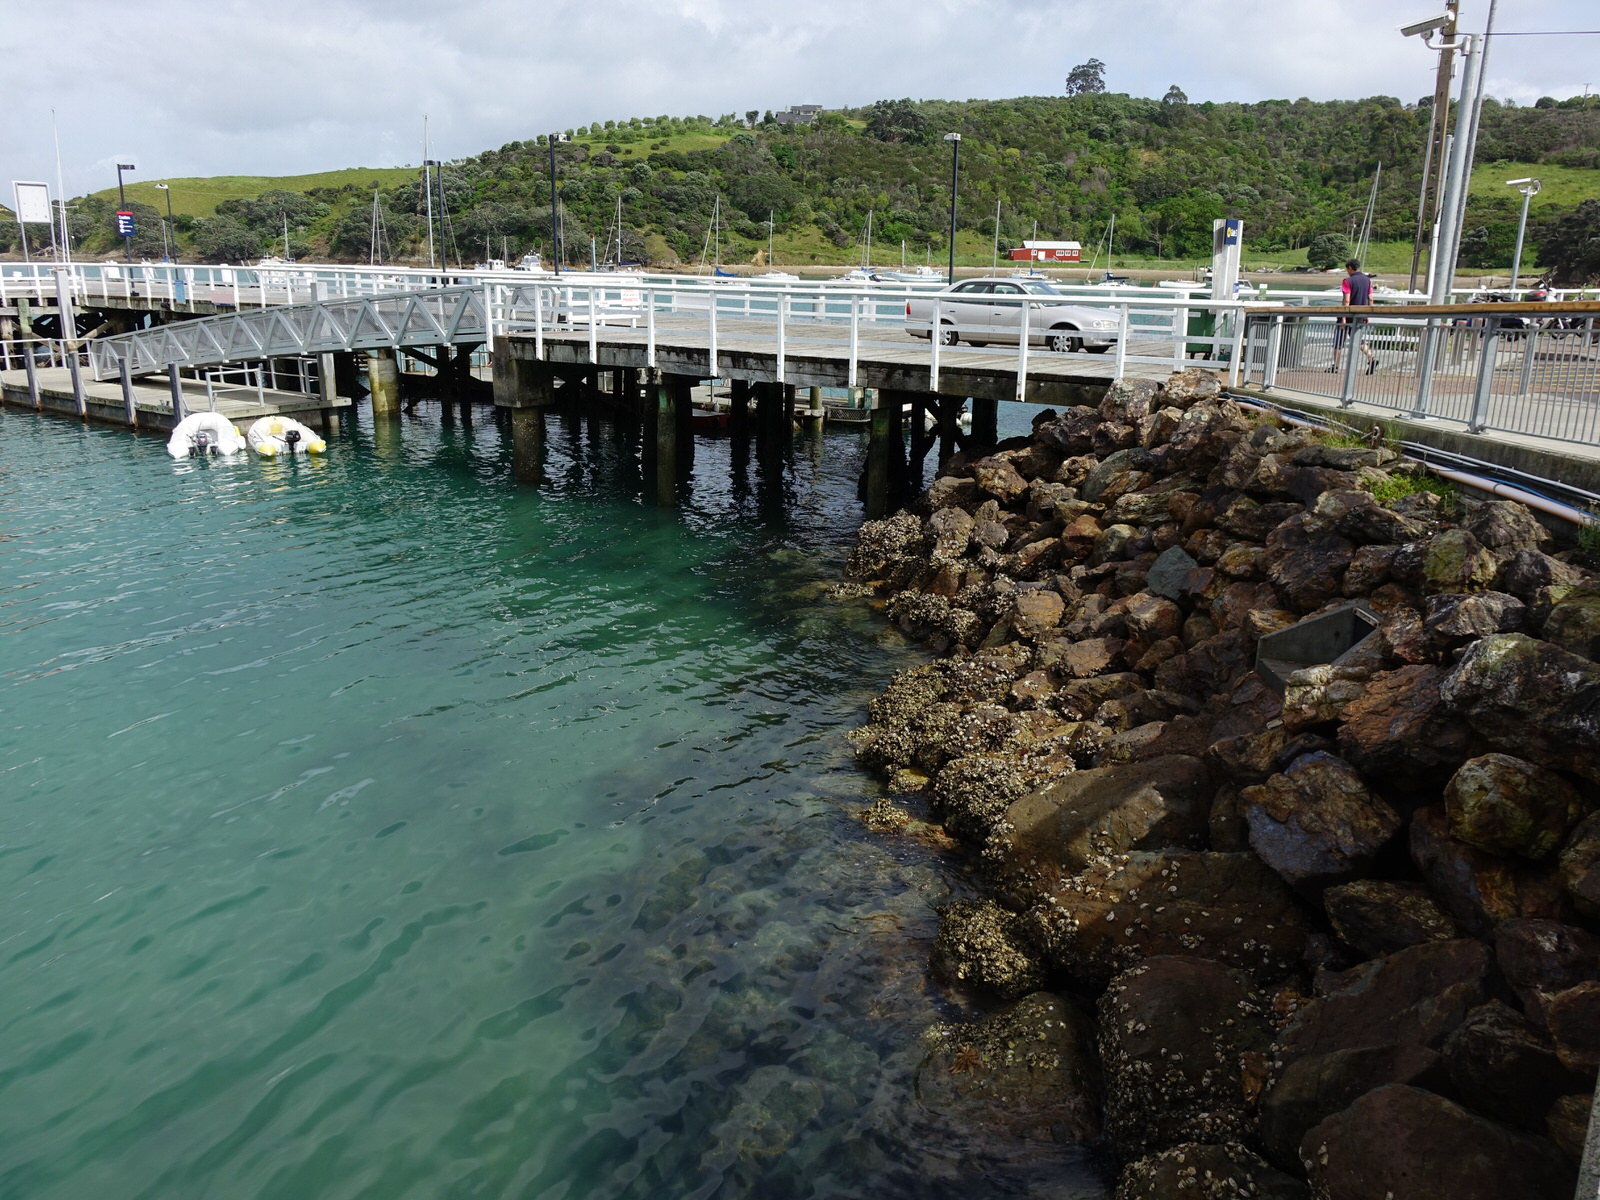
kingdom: Animalia
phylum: Echinodermata
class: Asteroidea
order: Forcipulatida
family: Asteriidae
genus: Coscinasterias
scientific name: Coscinasterias muricata
